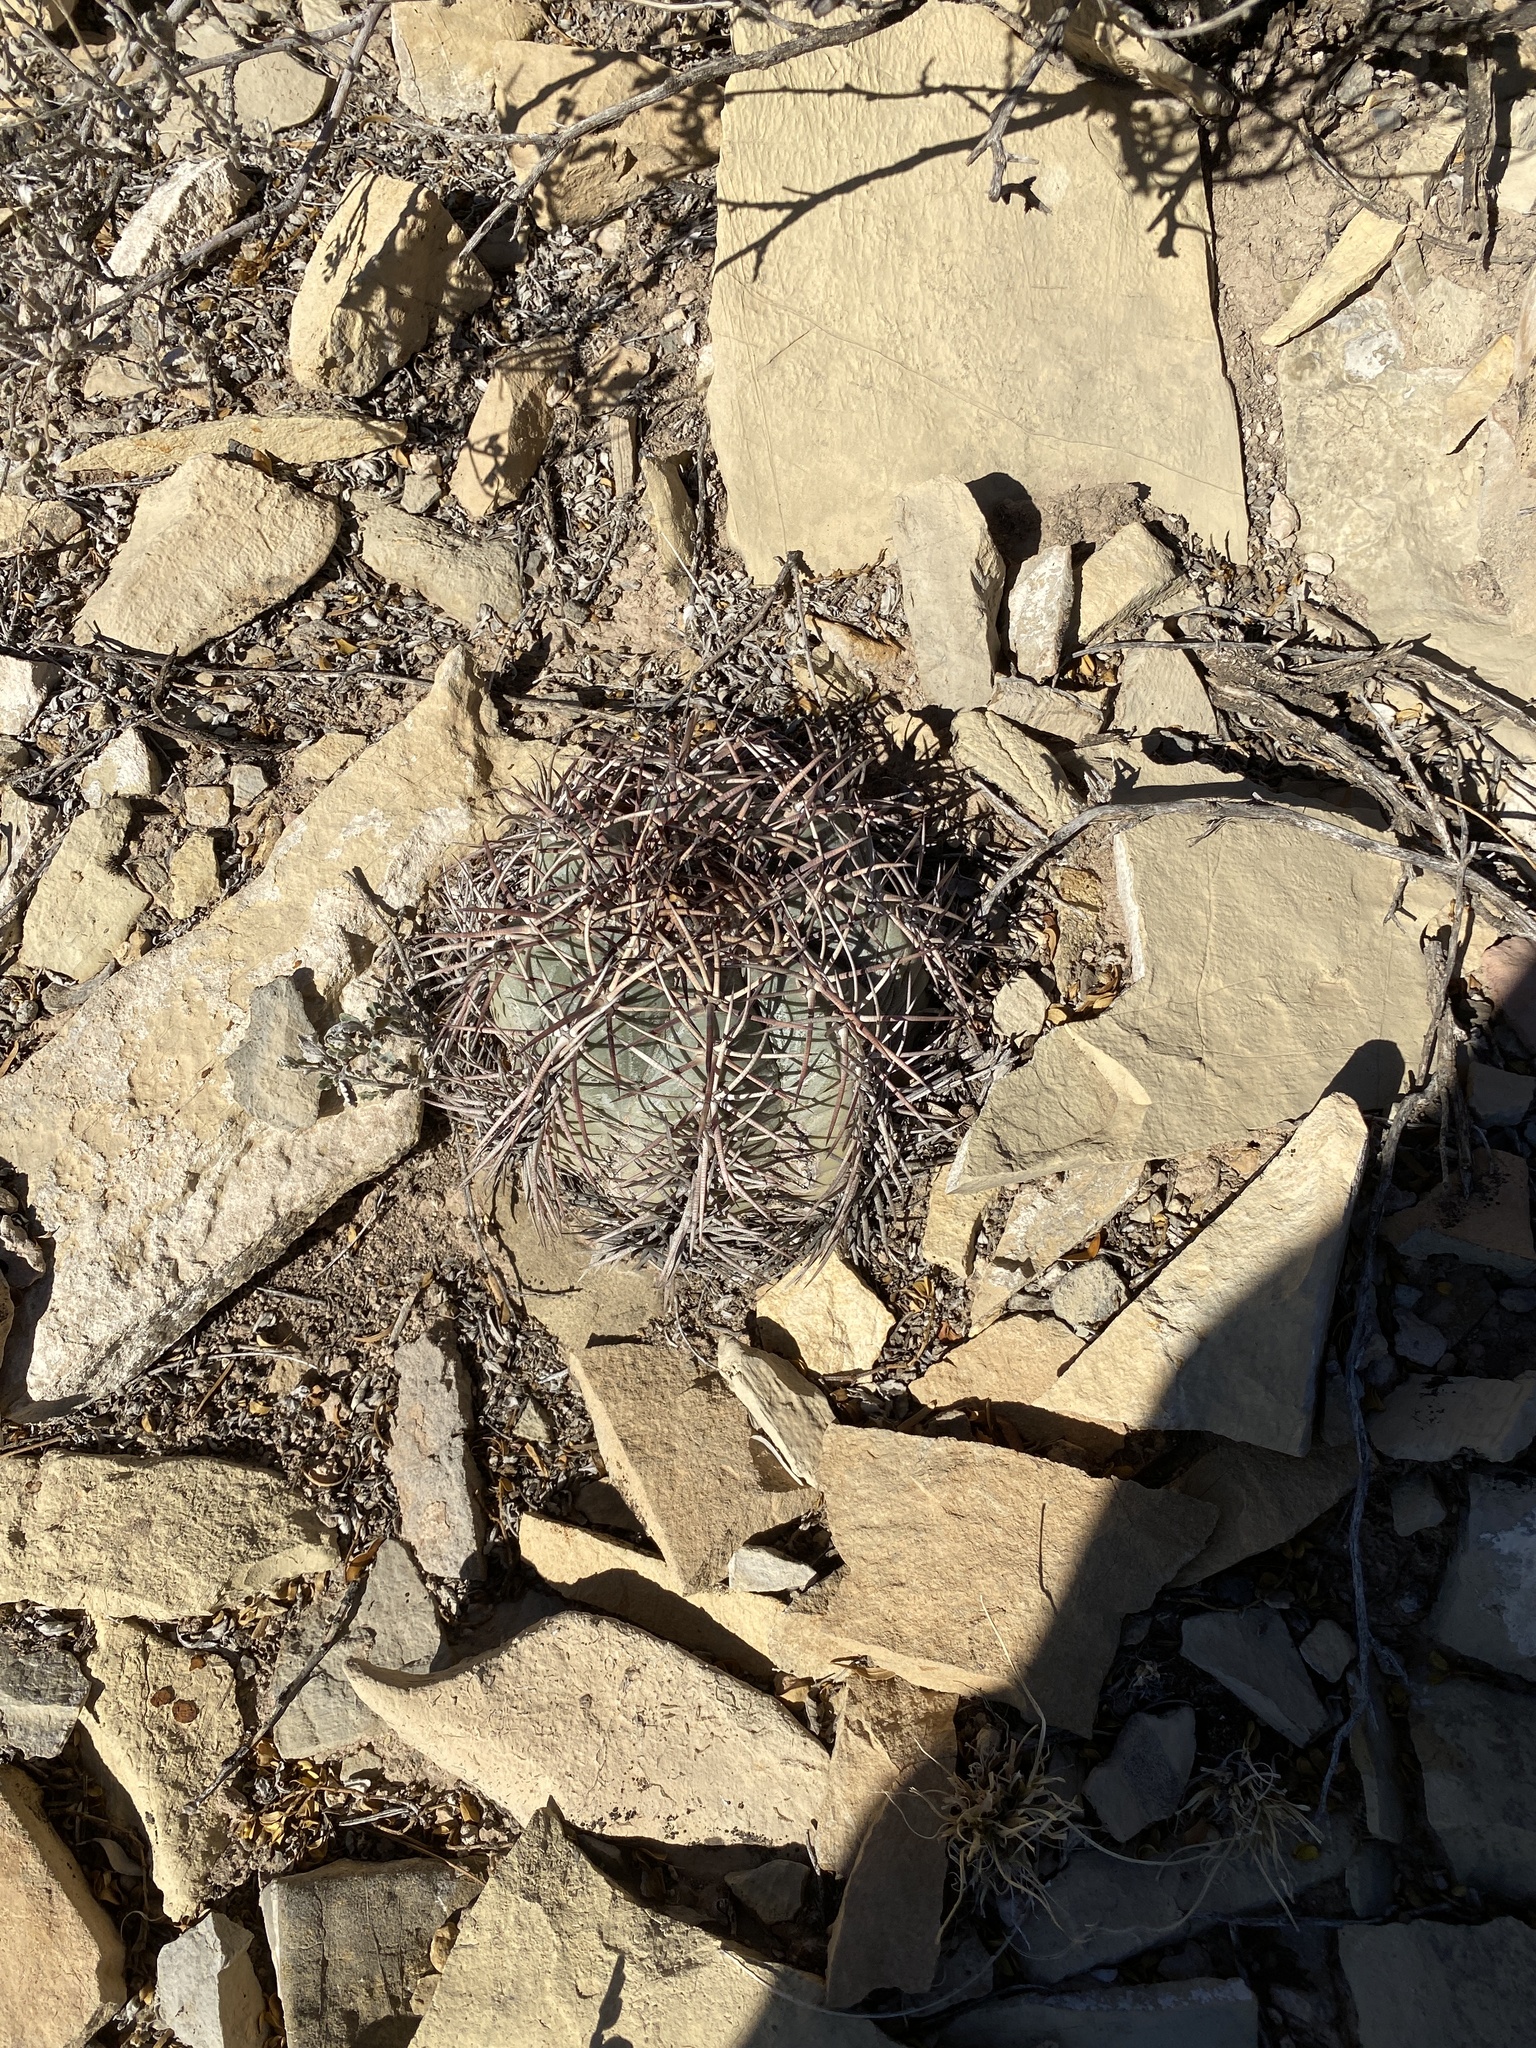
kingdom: Plantae
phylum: Tracheophyta
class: Magnoliopsida
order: Caryophyllales
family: Cactaceae
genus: Echinocactus
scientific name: Echinocactus horizonthalonius
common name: Devilshead
